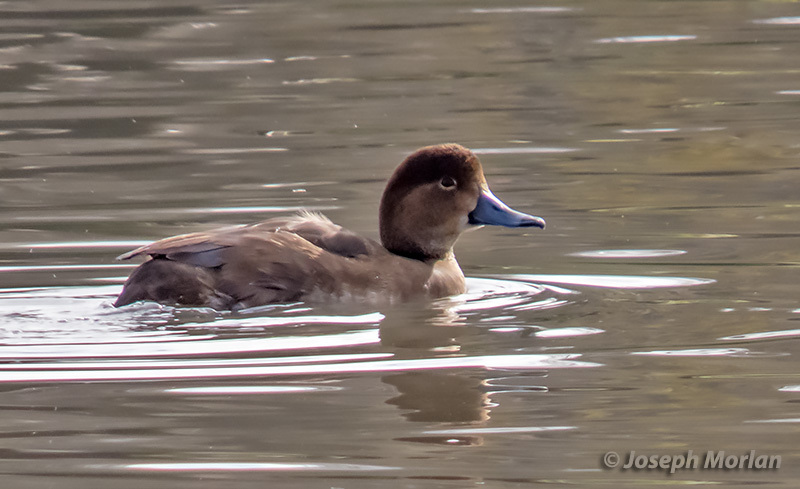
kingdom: Animalia
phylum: Chordata
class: Aves
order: Anseriformes
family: Anatidae
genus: Aythya
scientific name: Aythya americana
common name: Redhead
